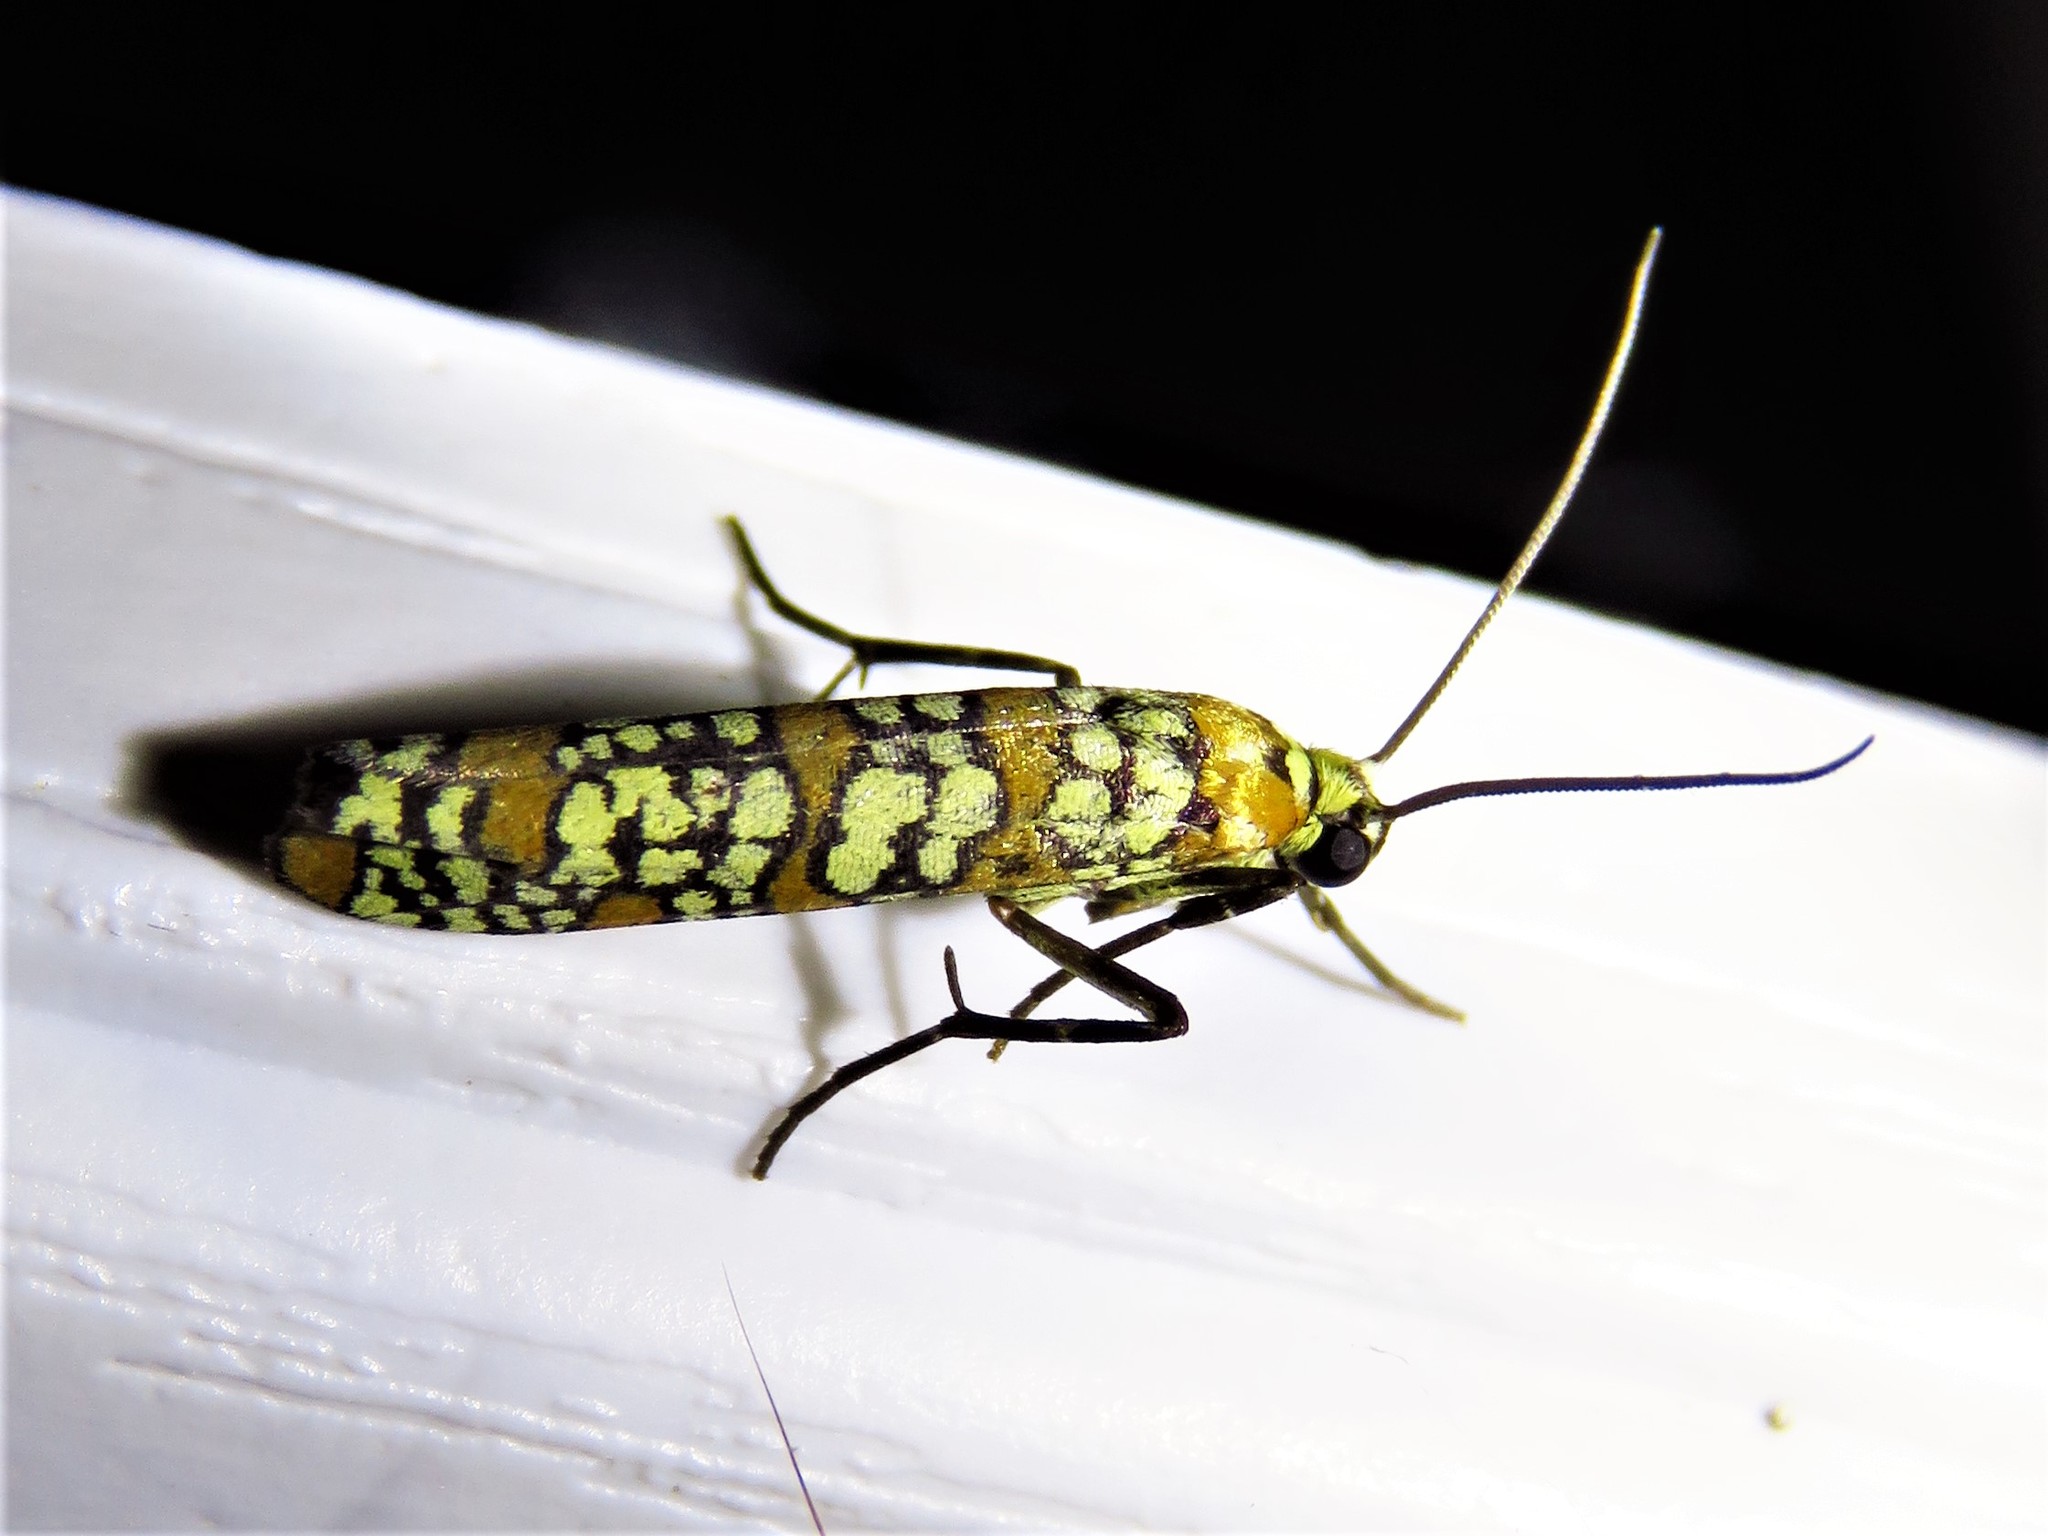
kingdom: Animalia
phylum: Arthropoda
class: Insecta
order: Lepidoptera
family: Attevidae
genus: Atteva
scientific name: Atteva punctella
